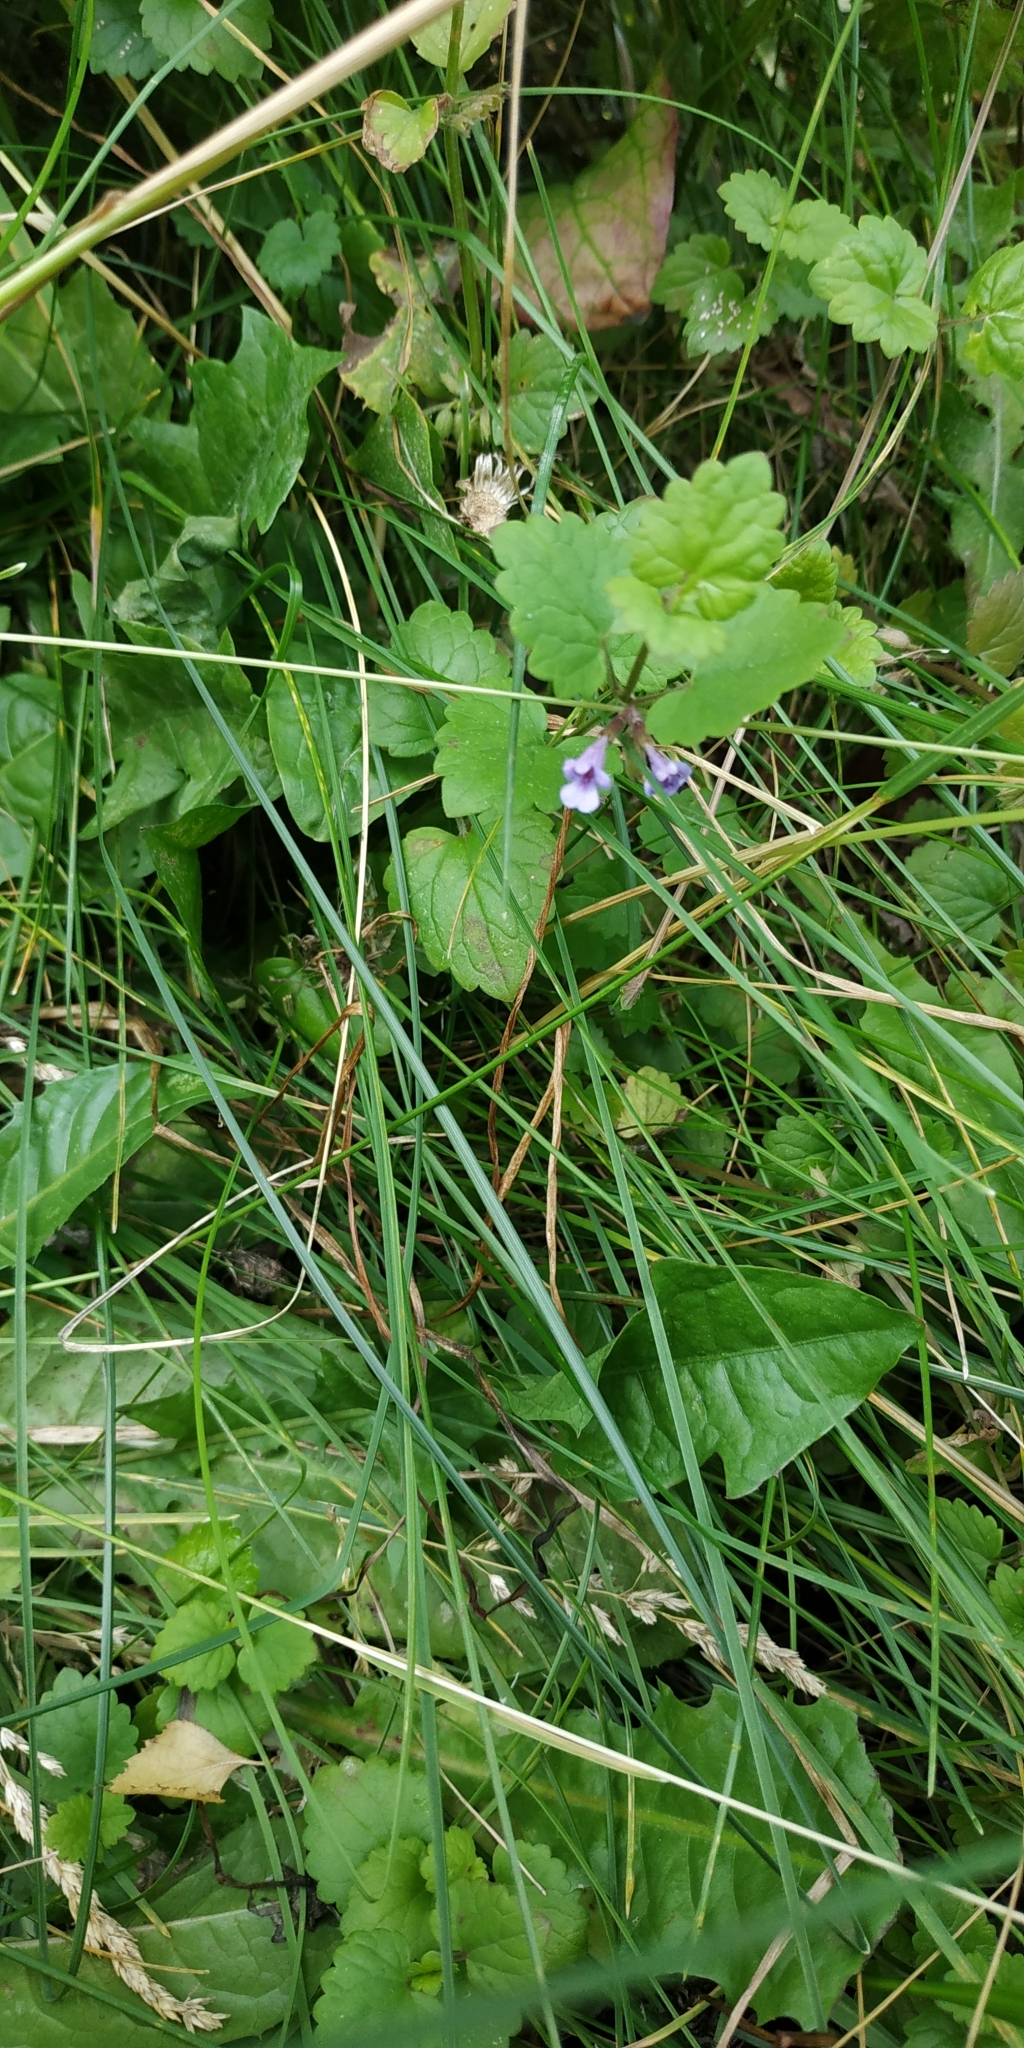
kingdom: Plantae
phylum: Tracheophyta
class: Magnoliopsida
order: Lamiales
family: Lamiaceae
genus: Glechoma
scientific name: Glechoma hederacea
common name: Ground ivy
